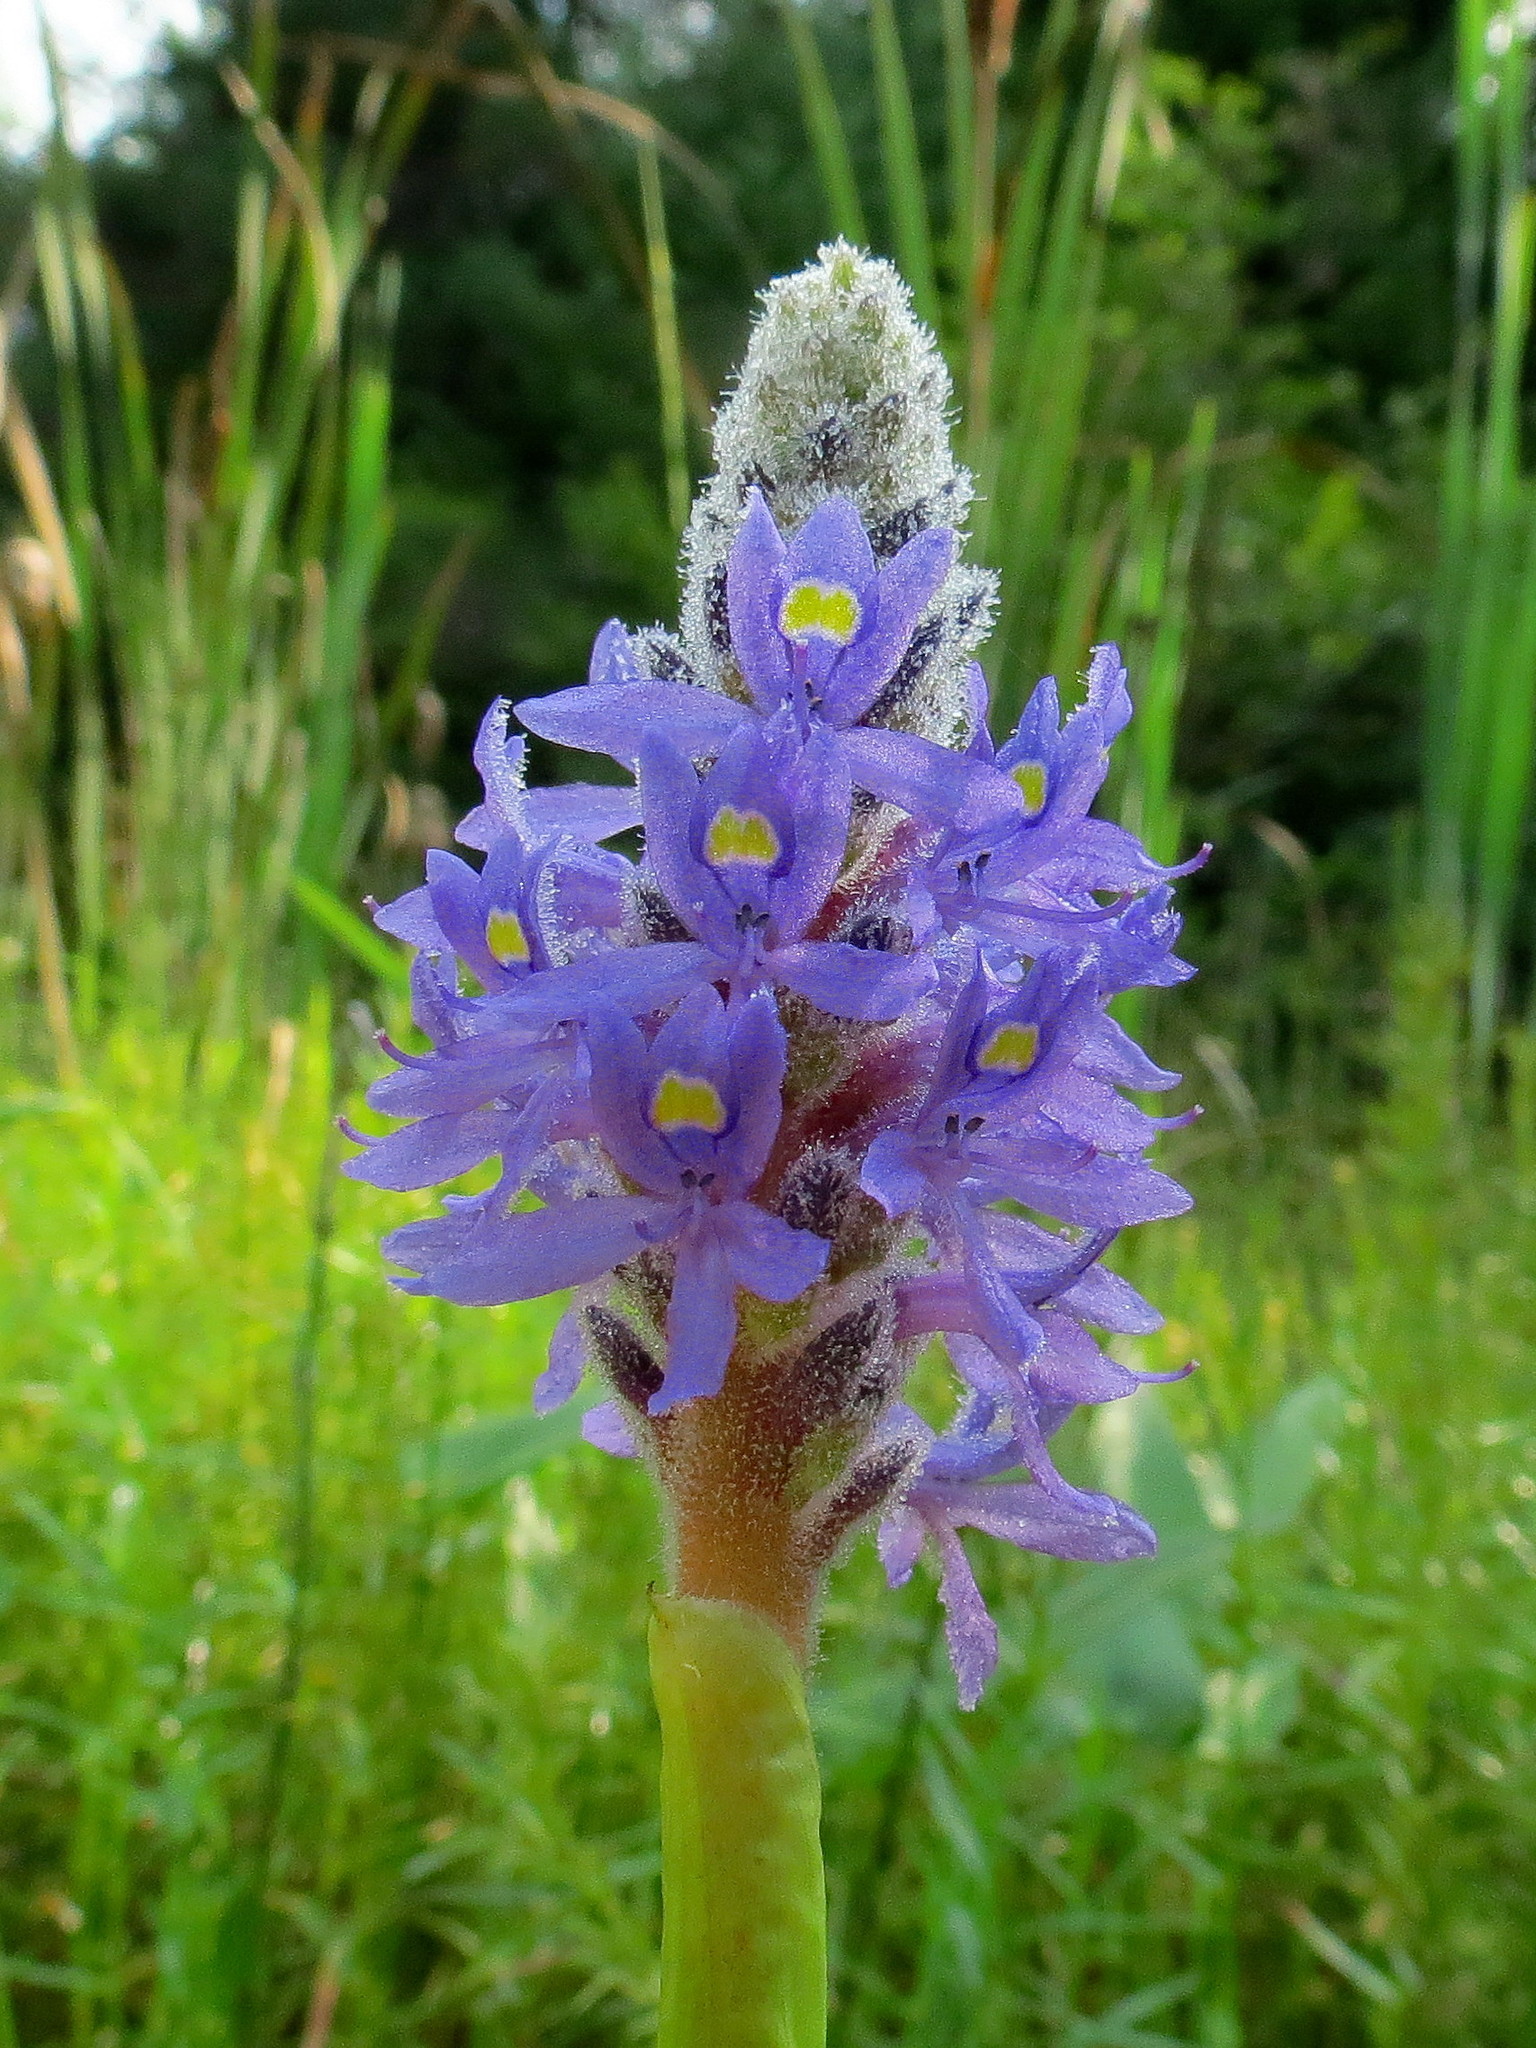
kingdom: Plantae
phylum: Tracheophyta
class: Liliopsida
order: Commelinales
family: Pontederiaceae
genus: Pontederia
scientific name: Pontederia cordata
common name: Pickerelweed
